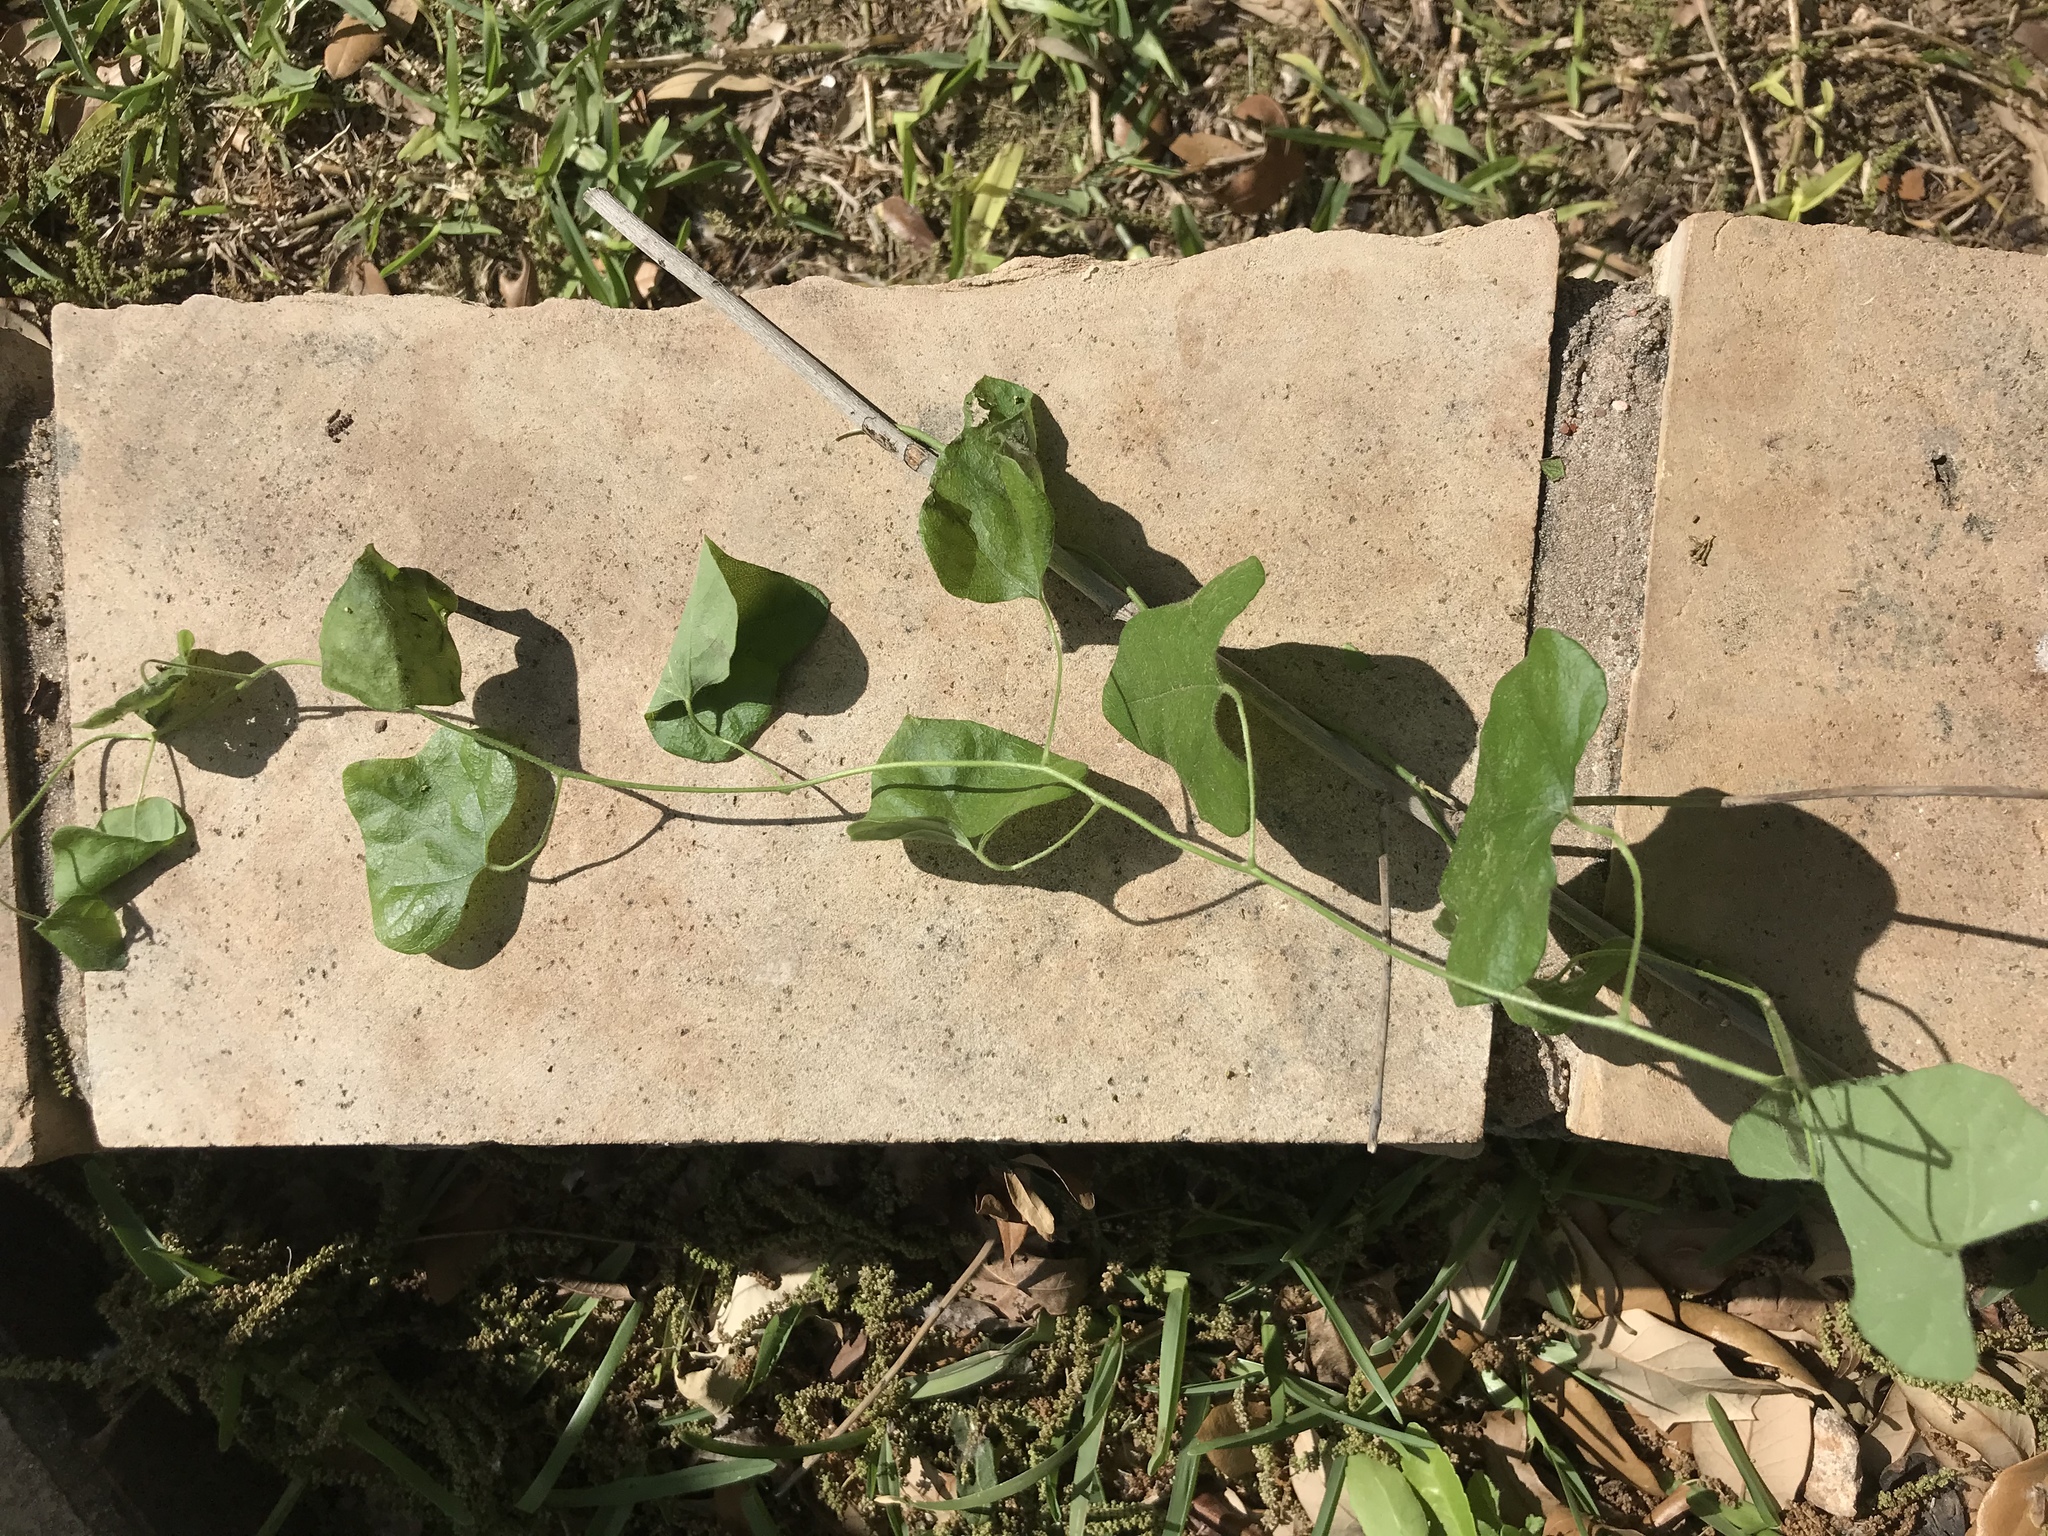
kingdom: Plantae
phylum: Tracheophyta
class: Magnoliopsida
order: Ranunculales
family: Menispermaceae
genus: Cocculus
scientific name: Cocculus carolinus
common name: Carolina moonseed
